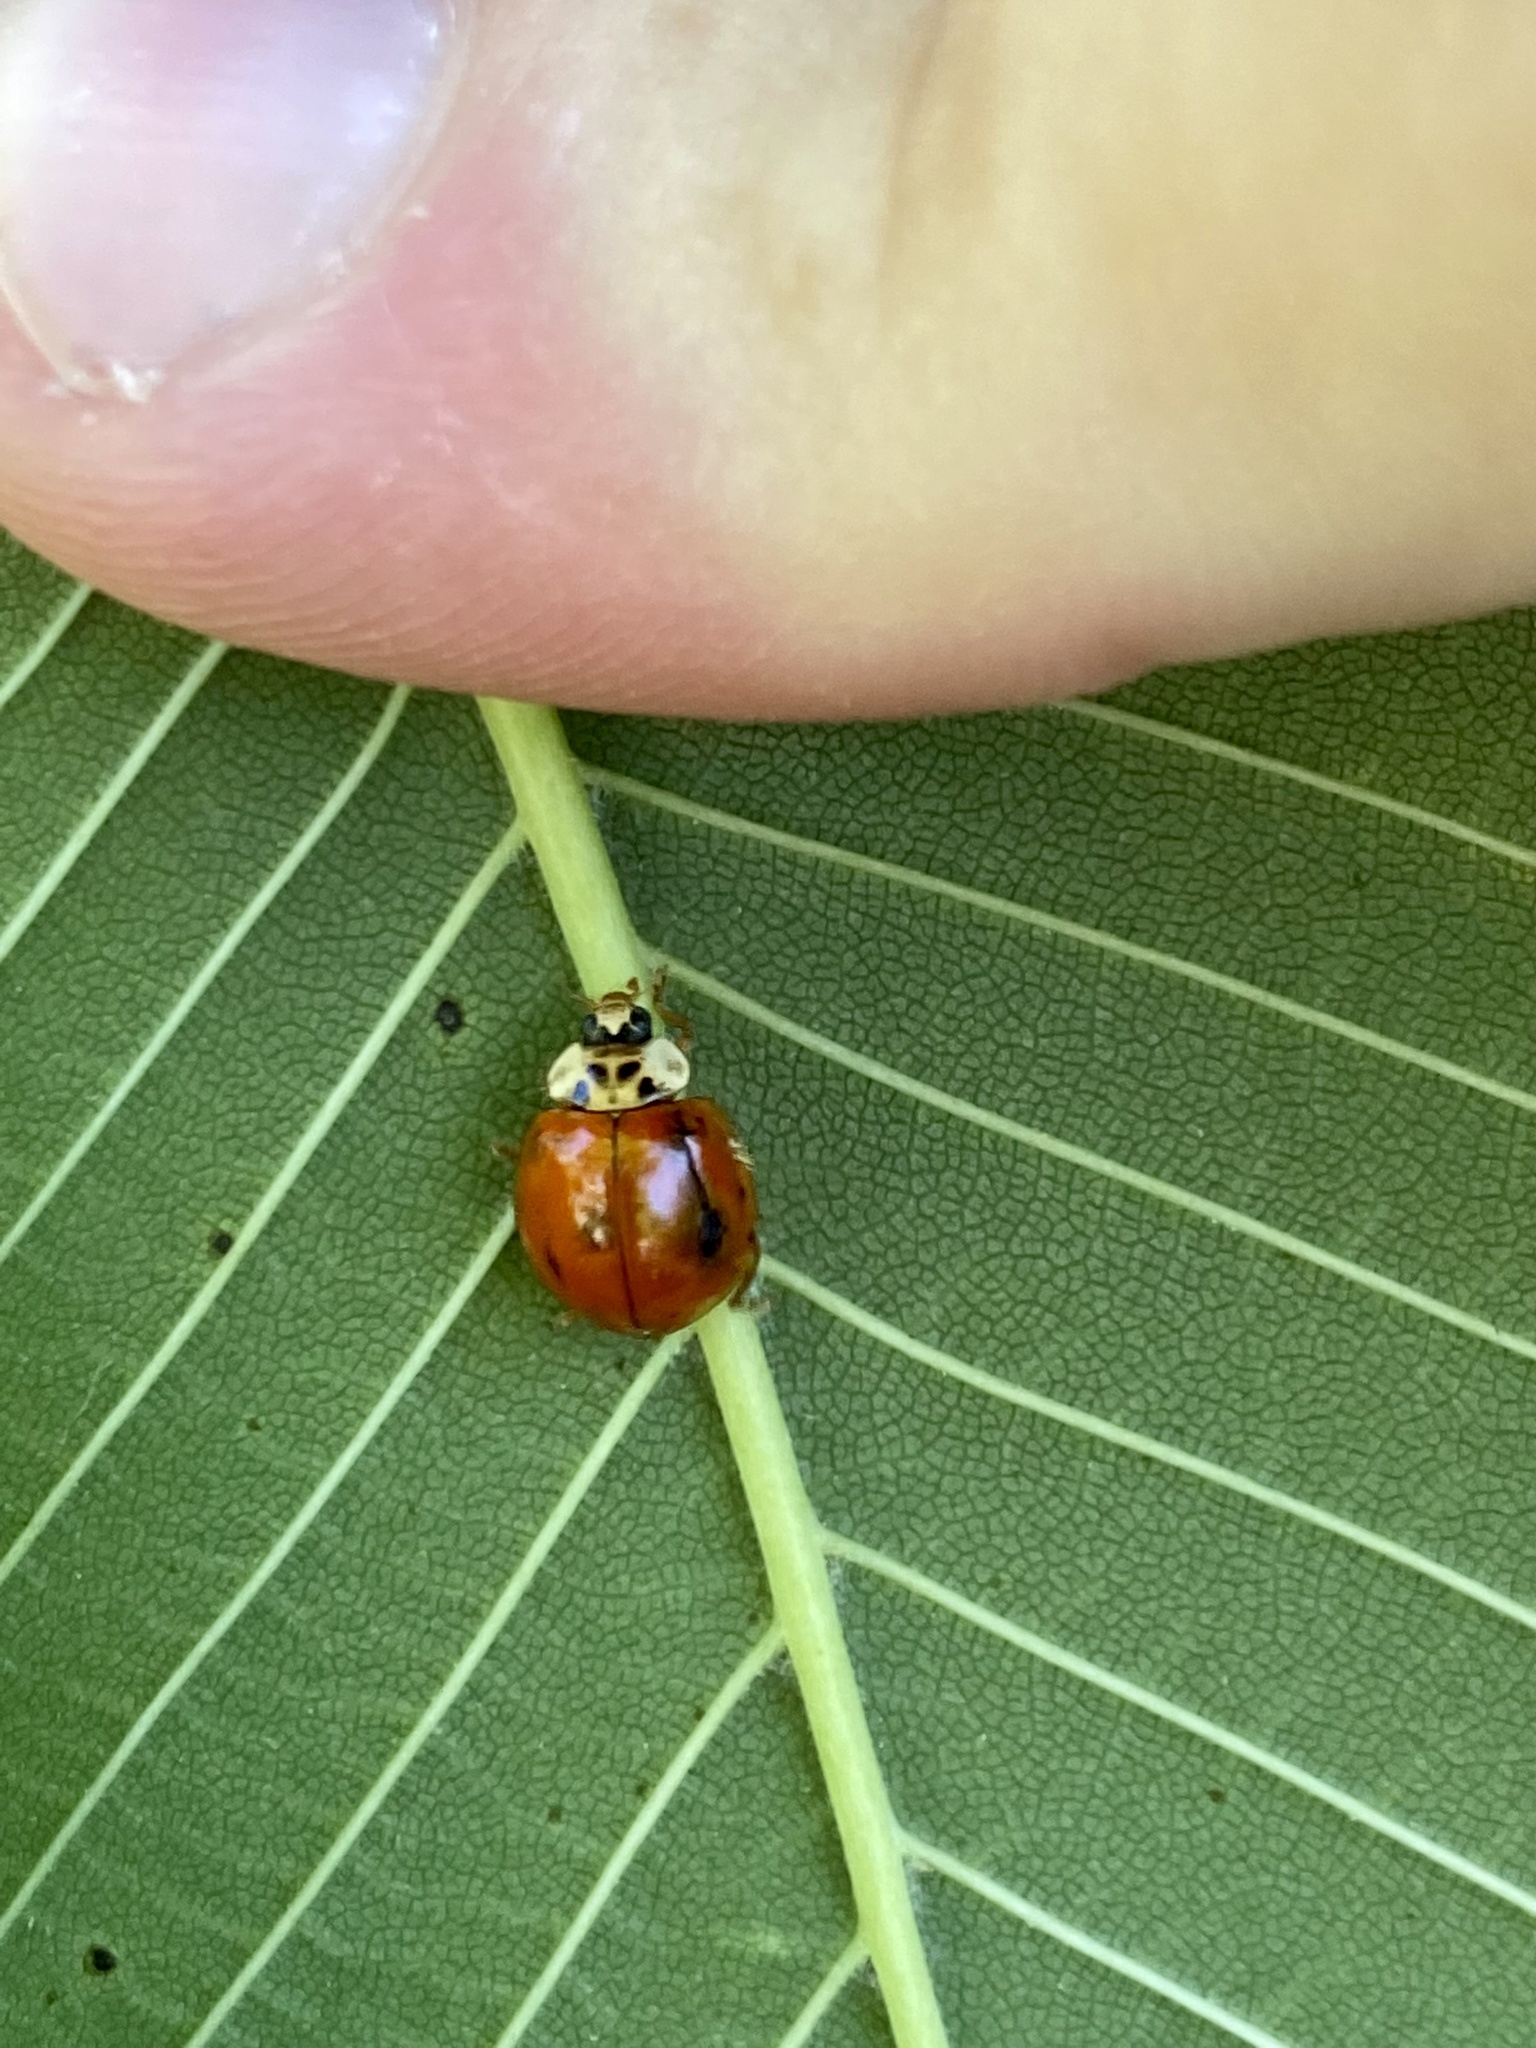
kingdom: Animalia
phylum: Arthropoda
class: Insecta
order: Coleoptera
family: Coccinellidae
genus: Harmonia
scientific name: Harmonia axyridis
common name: Harlequin ladybird
